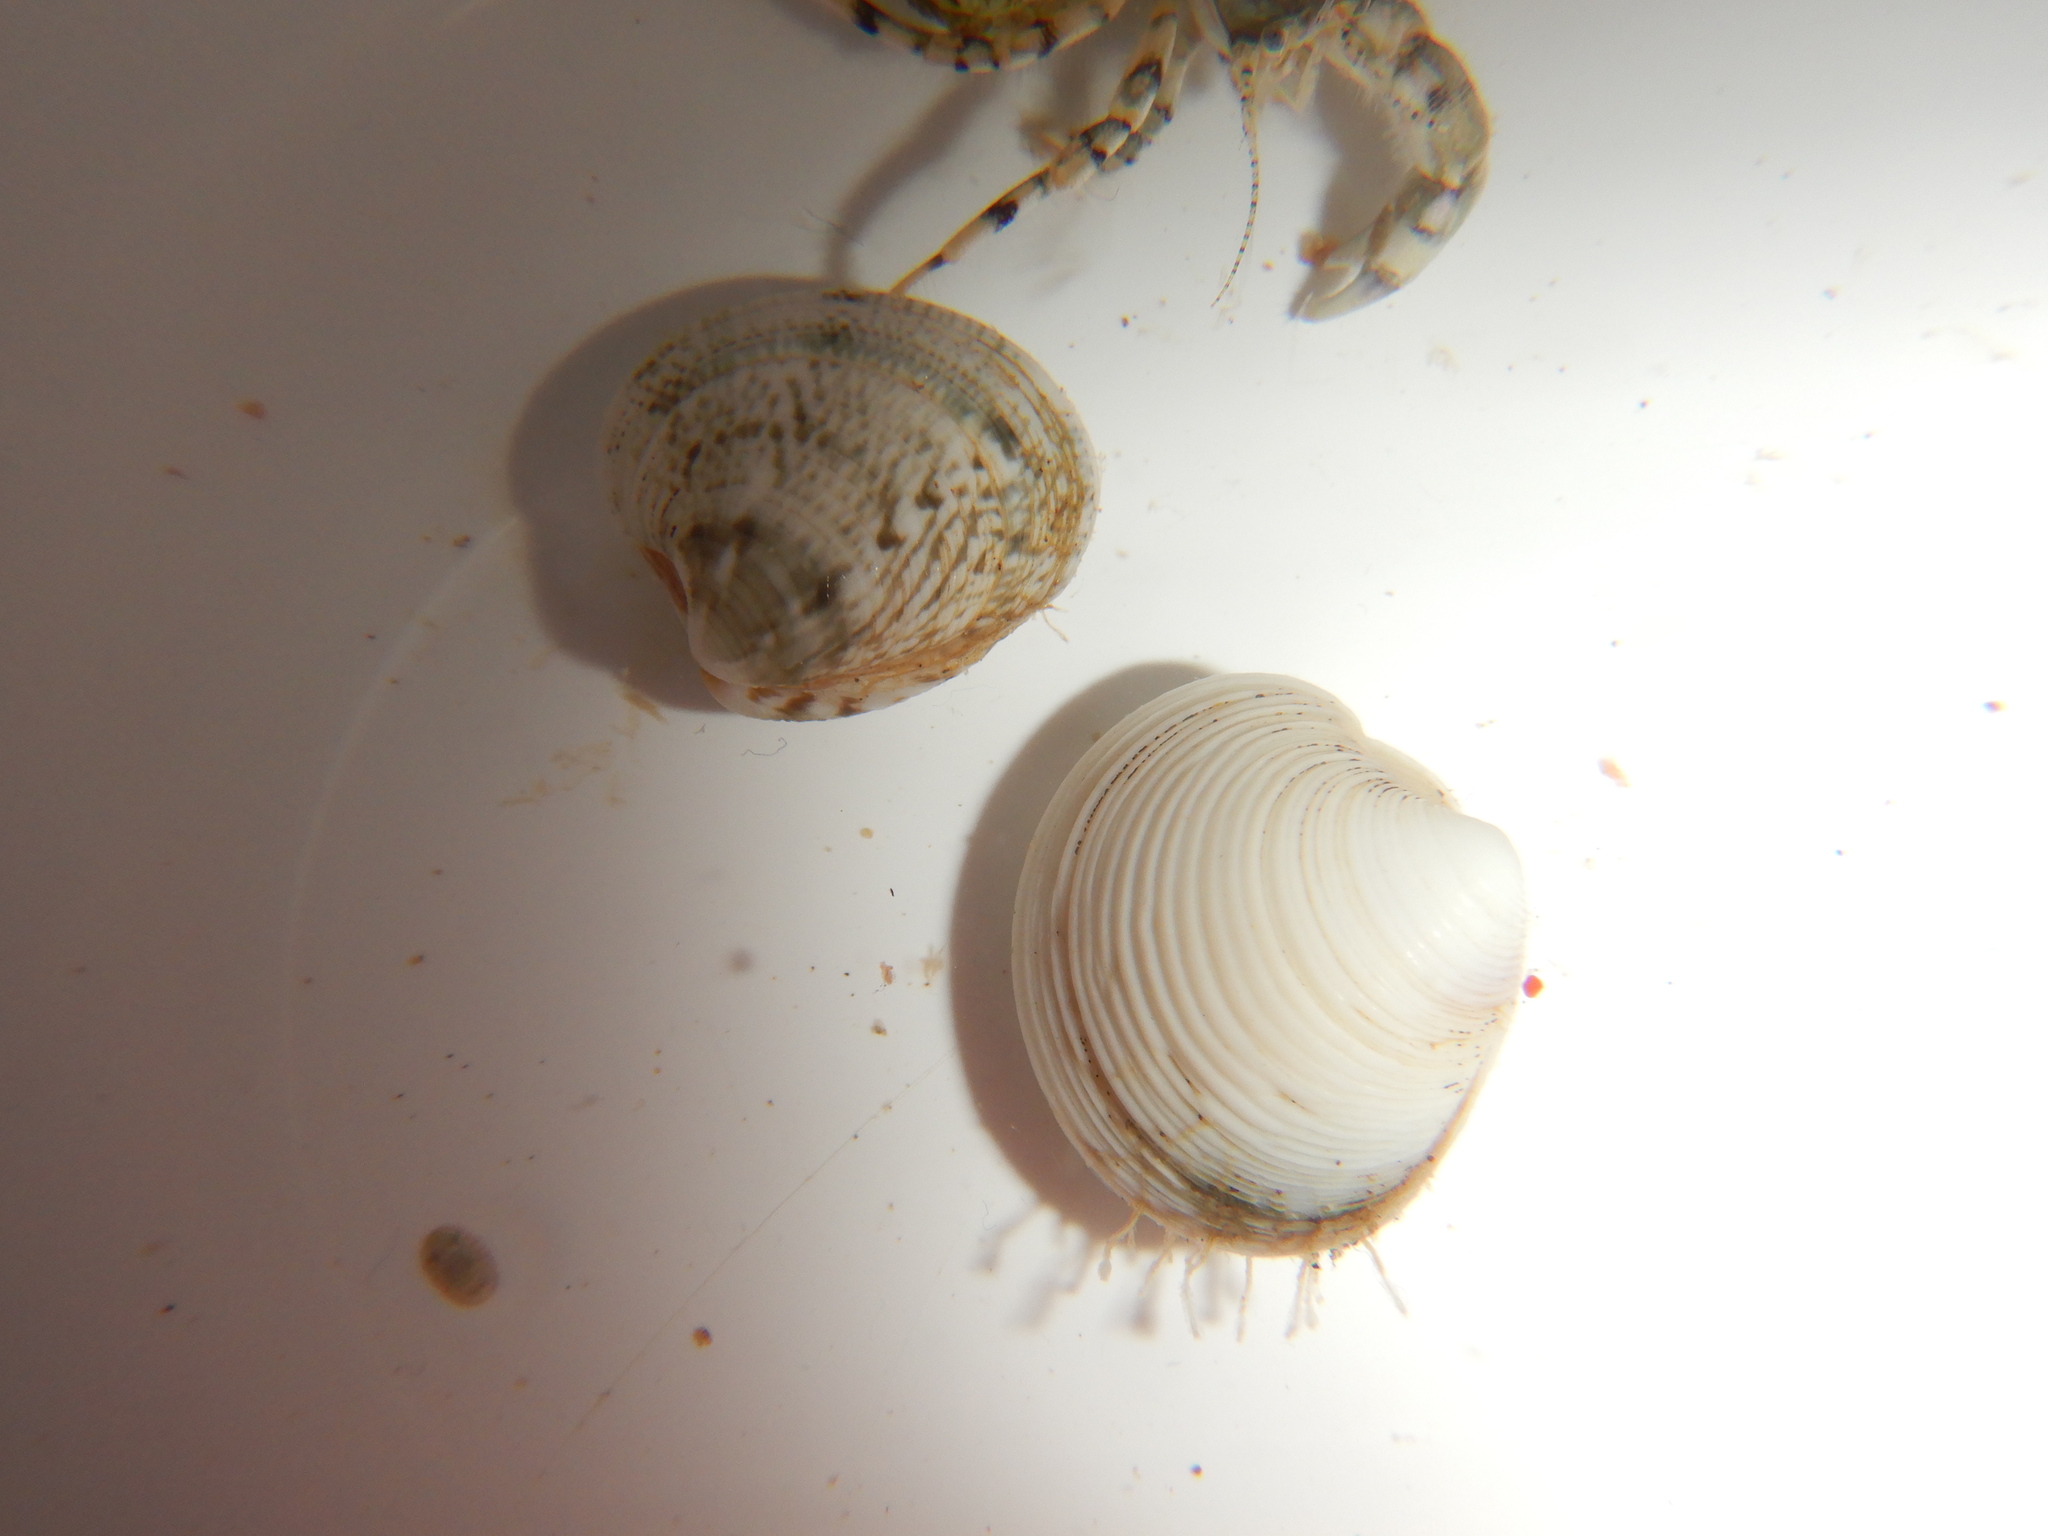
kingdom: Animalia
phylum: Mollusca
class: Bivalvia
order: Venerida
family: Veneridae
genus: Chamelea
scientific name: Chamelea gallina
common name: Chicken venus
